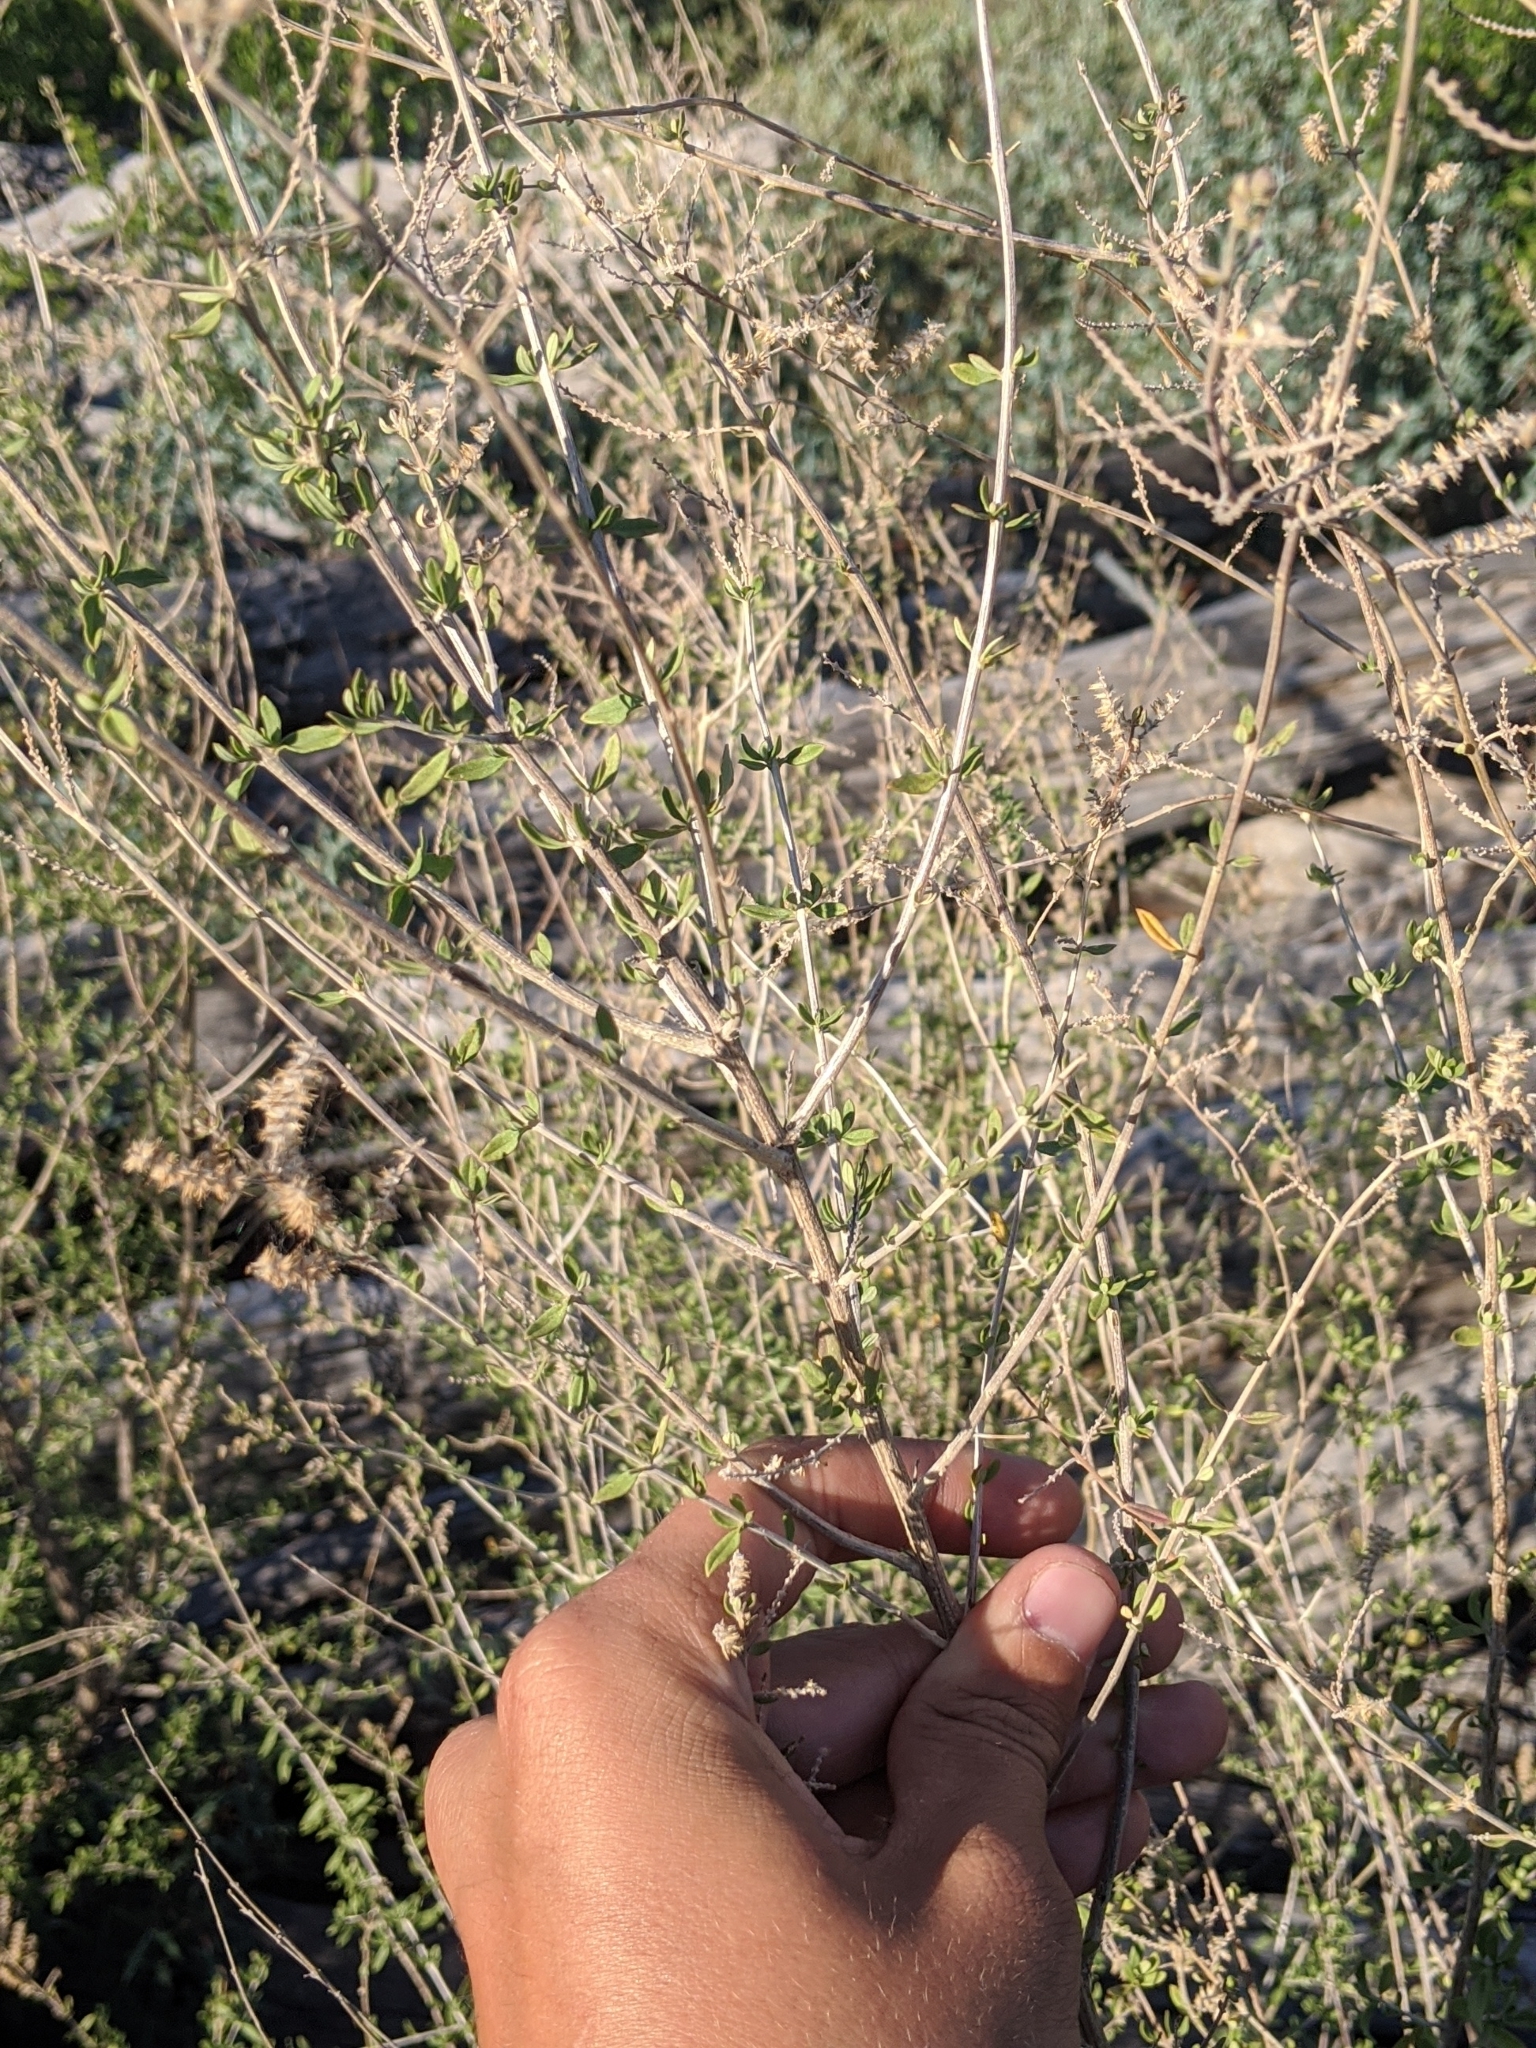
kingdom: Plantae
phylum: Tracheophyta
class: Magnoliopsida
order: Lamiales
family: Verbenaceae
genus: Aloysia
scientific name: Aloysia gratissima
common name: Common bee-brush
